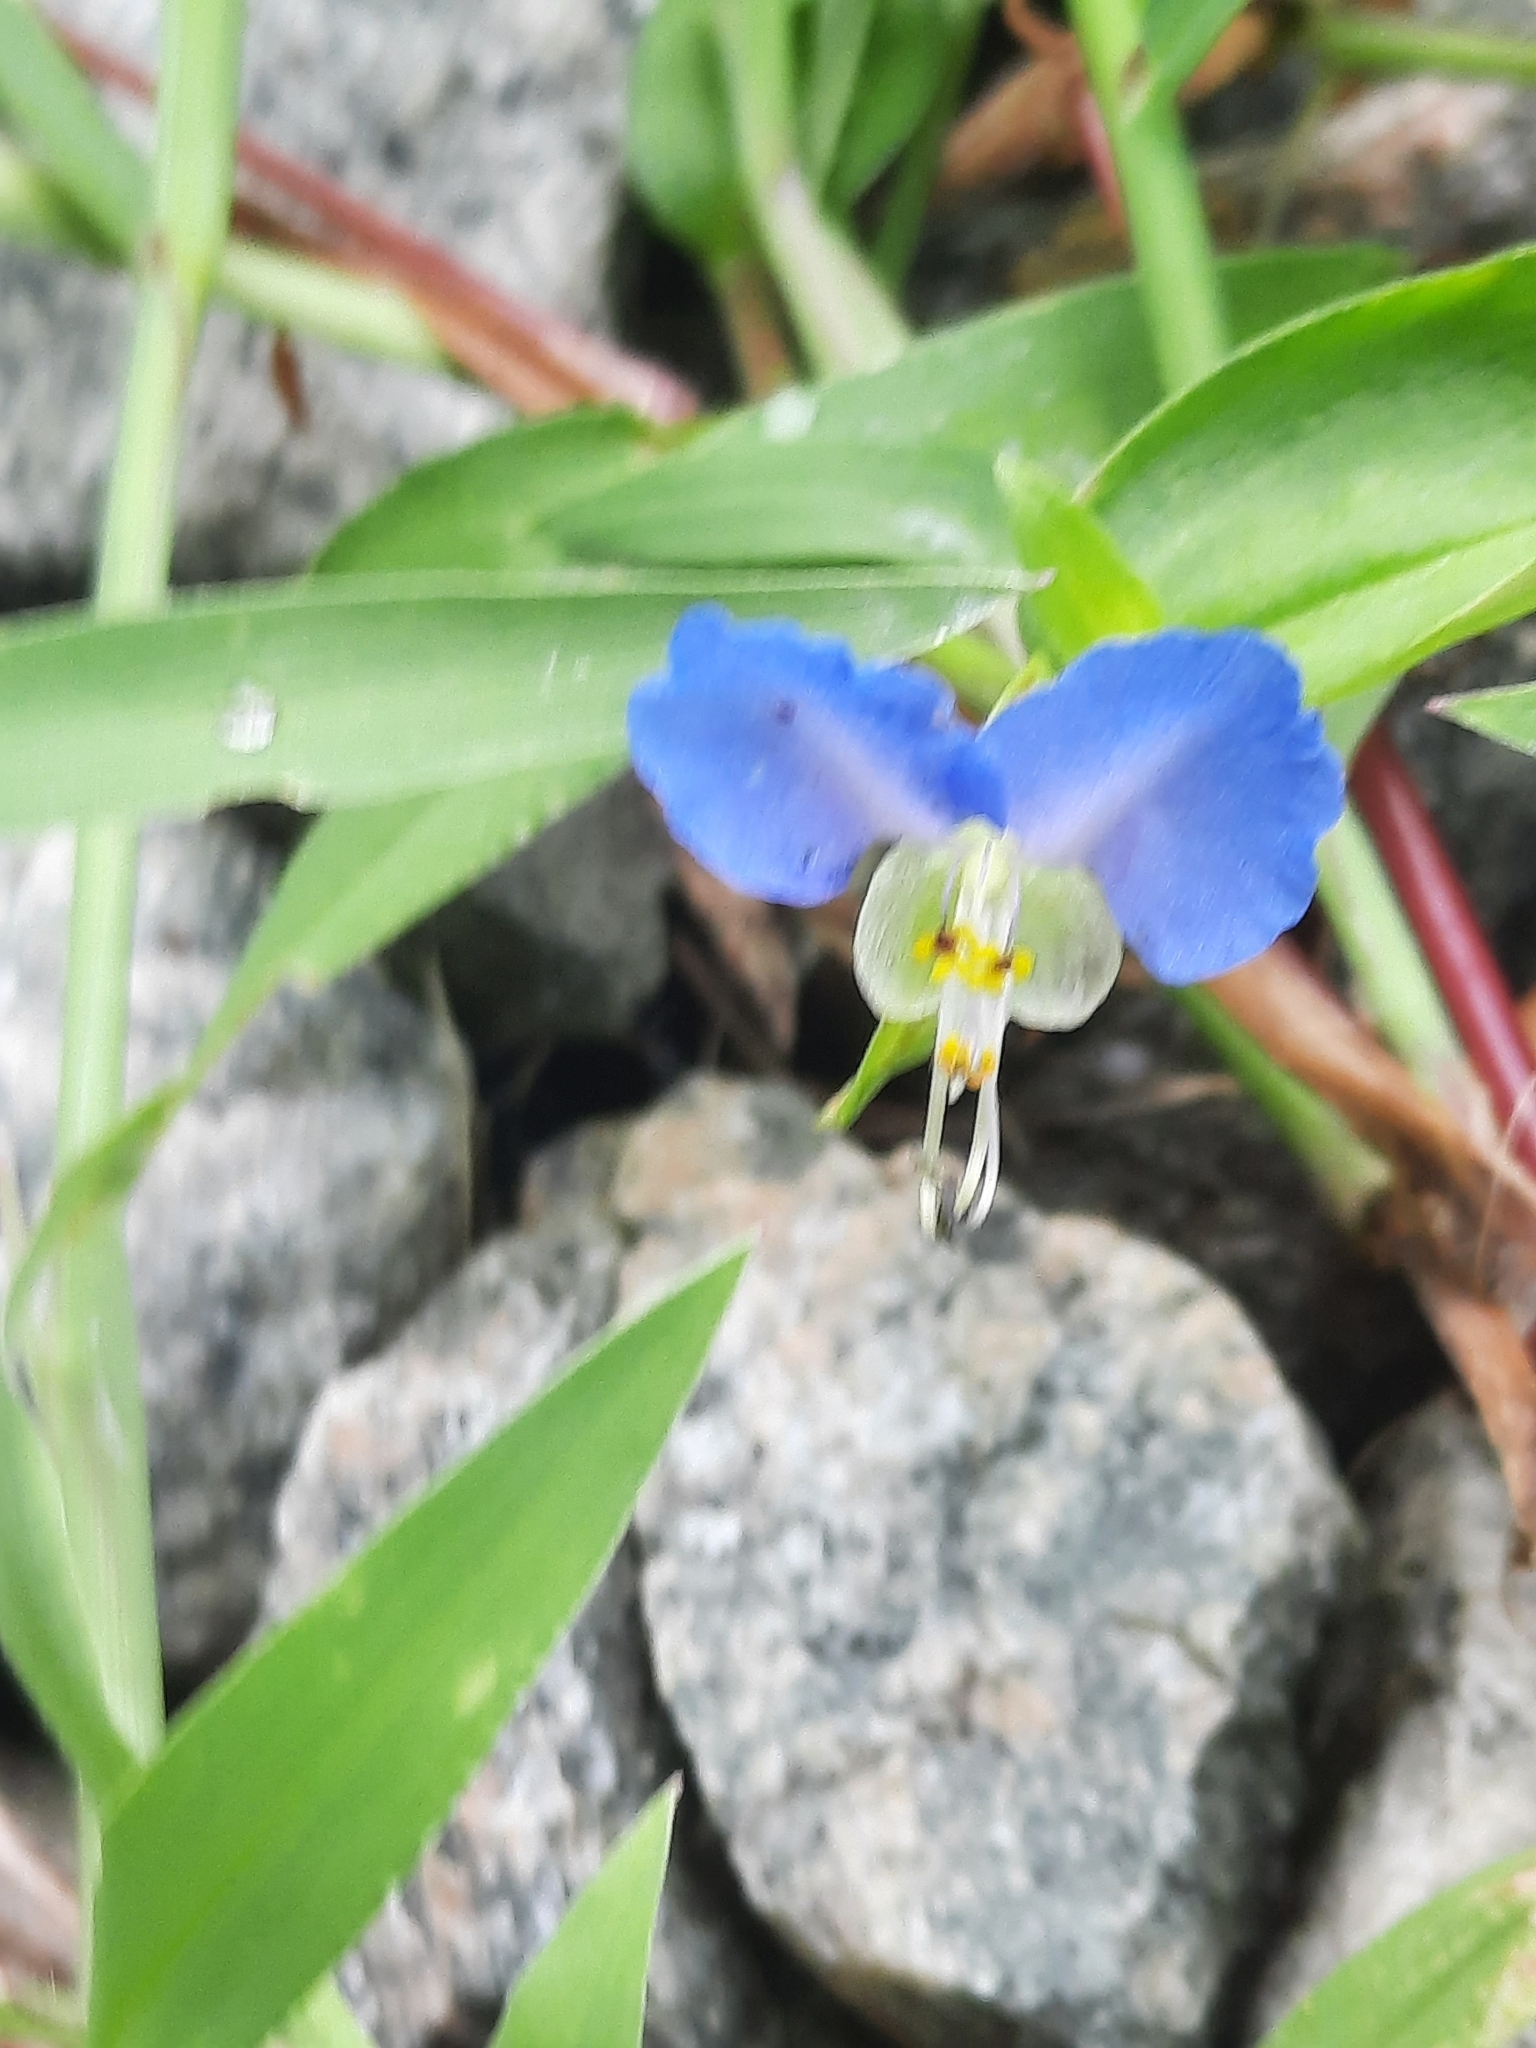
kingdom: Plantae
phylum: Tracheophyta
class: Liliopsida
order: Commelinales
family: Commelinaceae
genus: Commelina
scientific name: Commelina communis
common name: Asiatic dayflower
